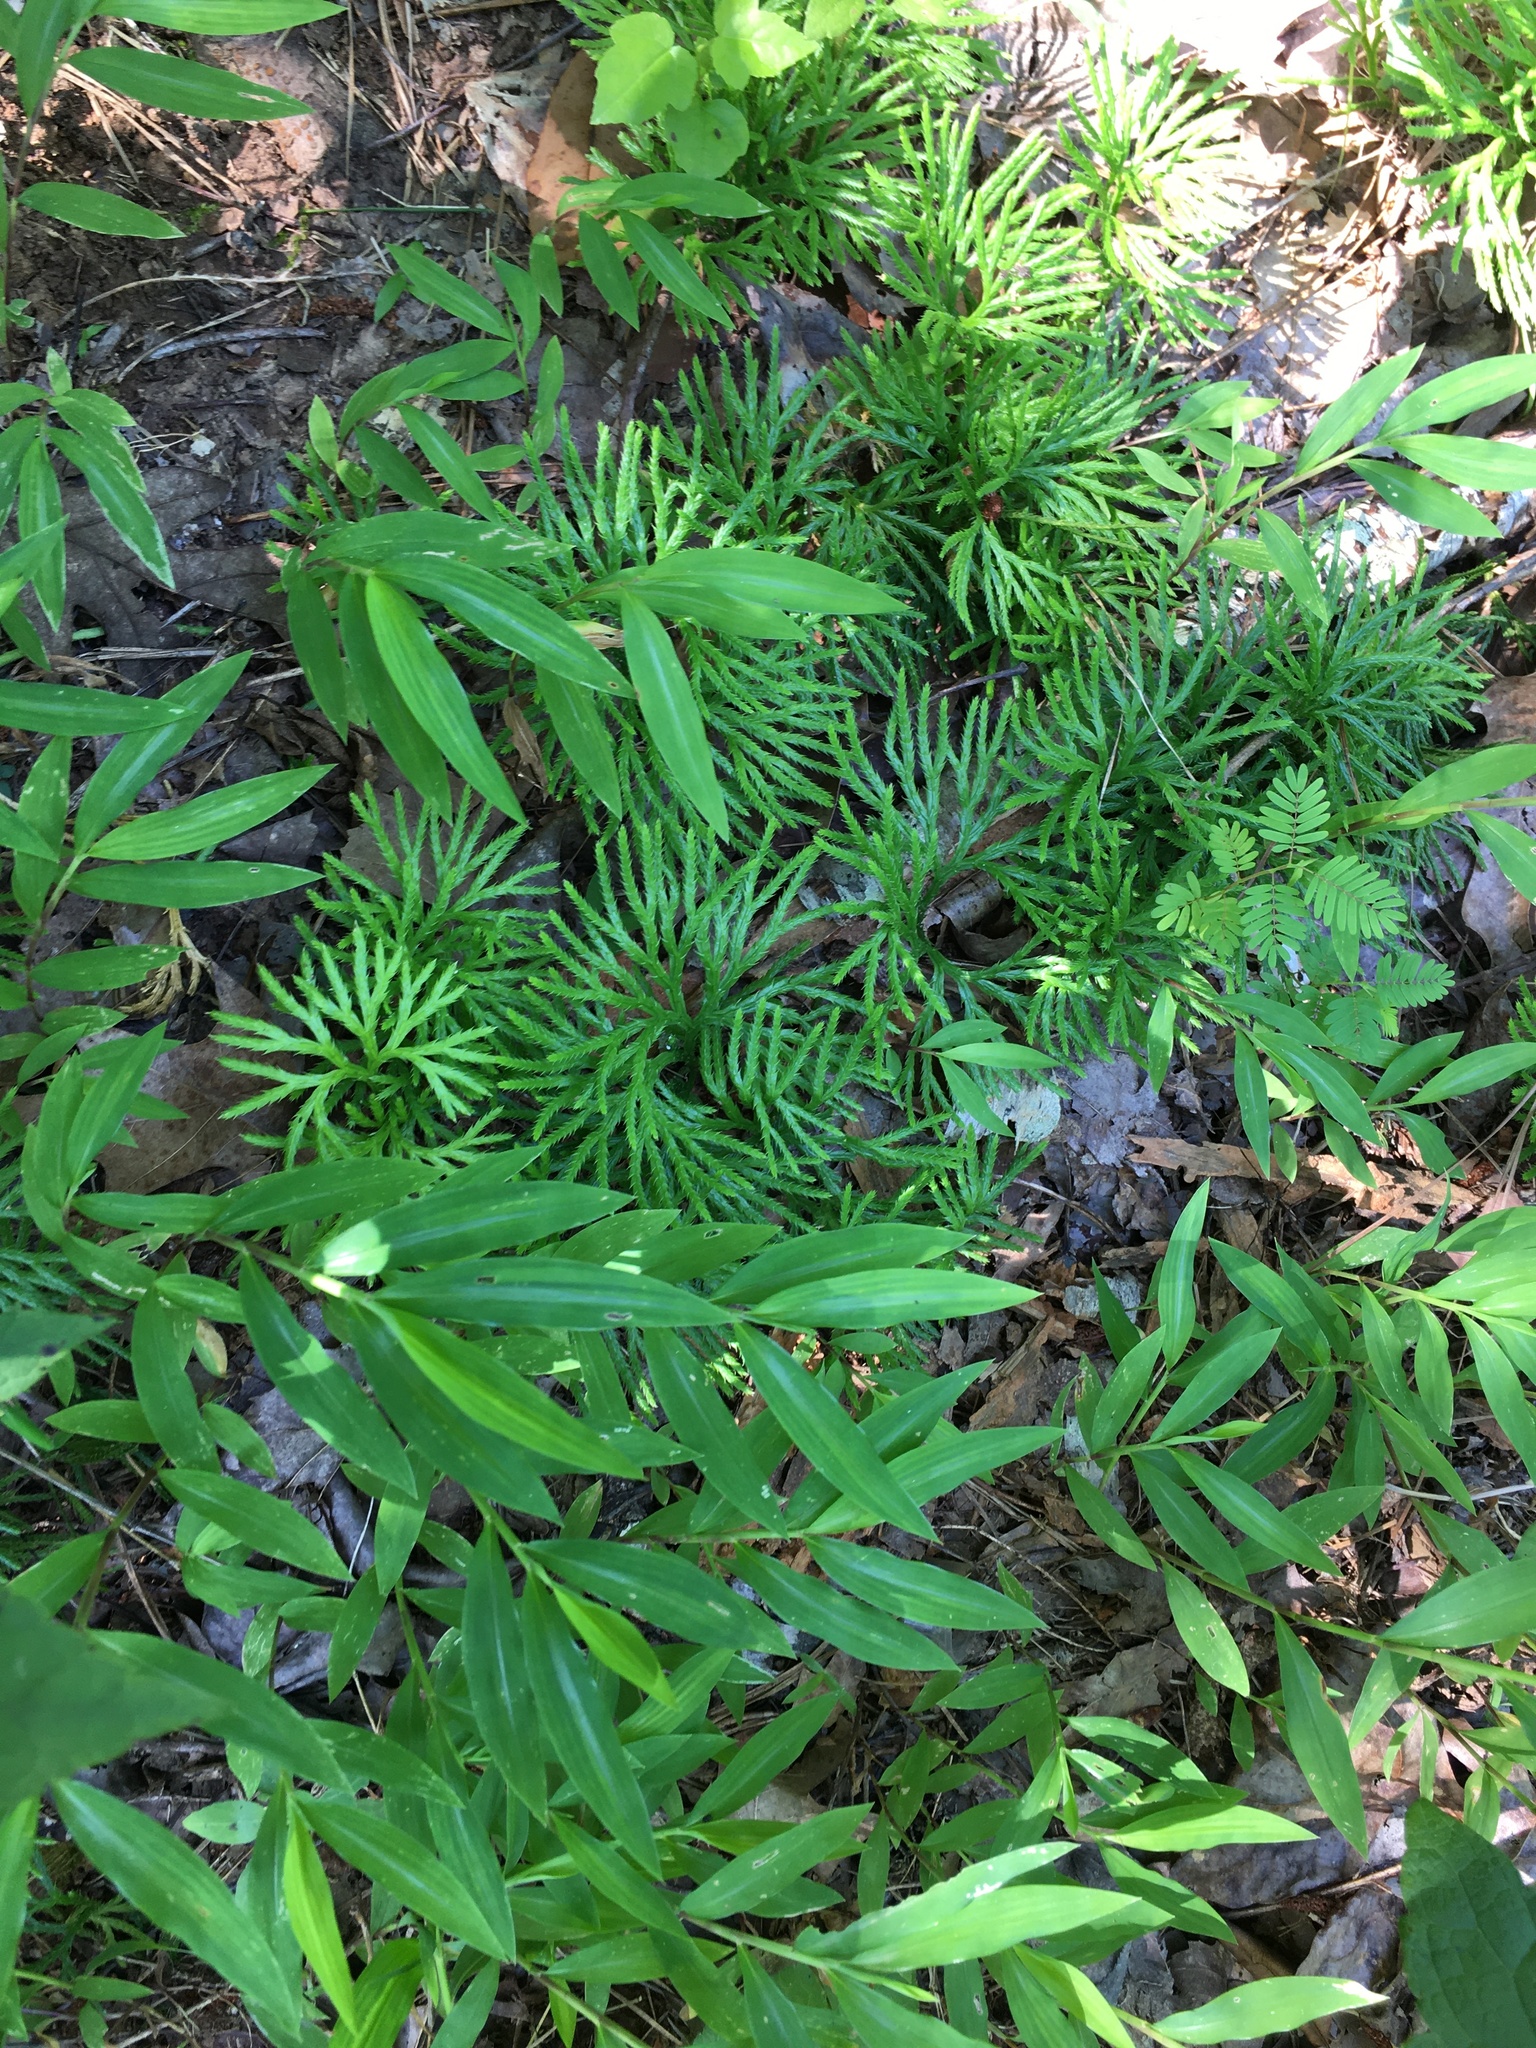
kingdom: Plantae
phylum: Tracheophyta
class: Lycopodiopsida
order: Lycopodiales
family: Lycopodiaceae
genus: Diphasiastrum
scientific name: Diphasiastrum digitatum
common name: Southern running-pine
